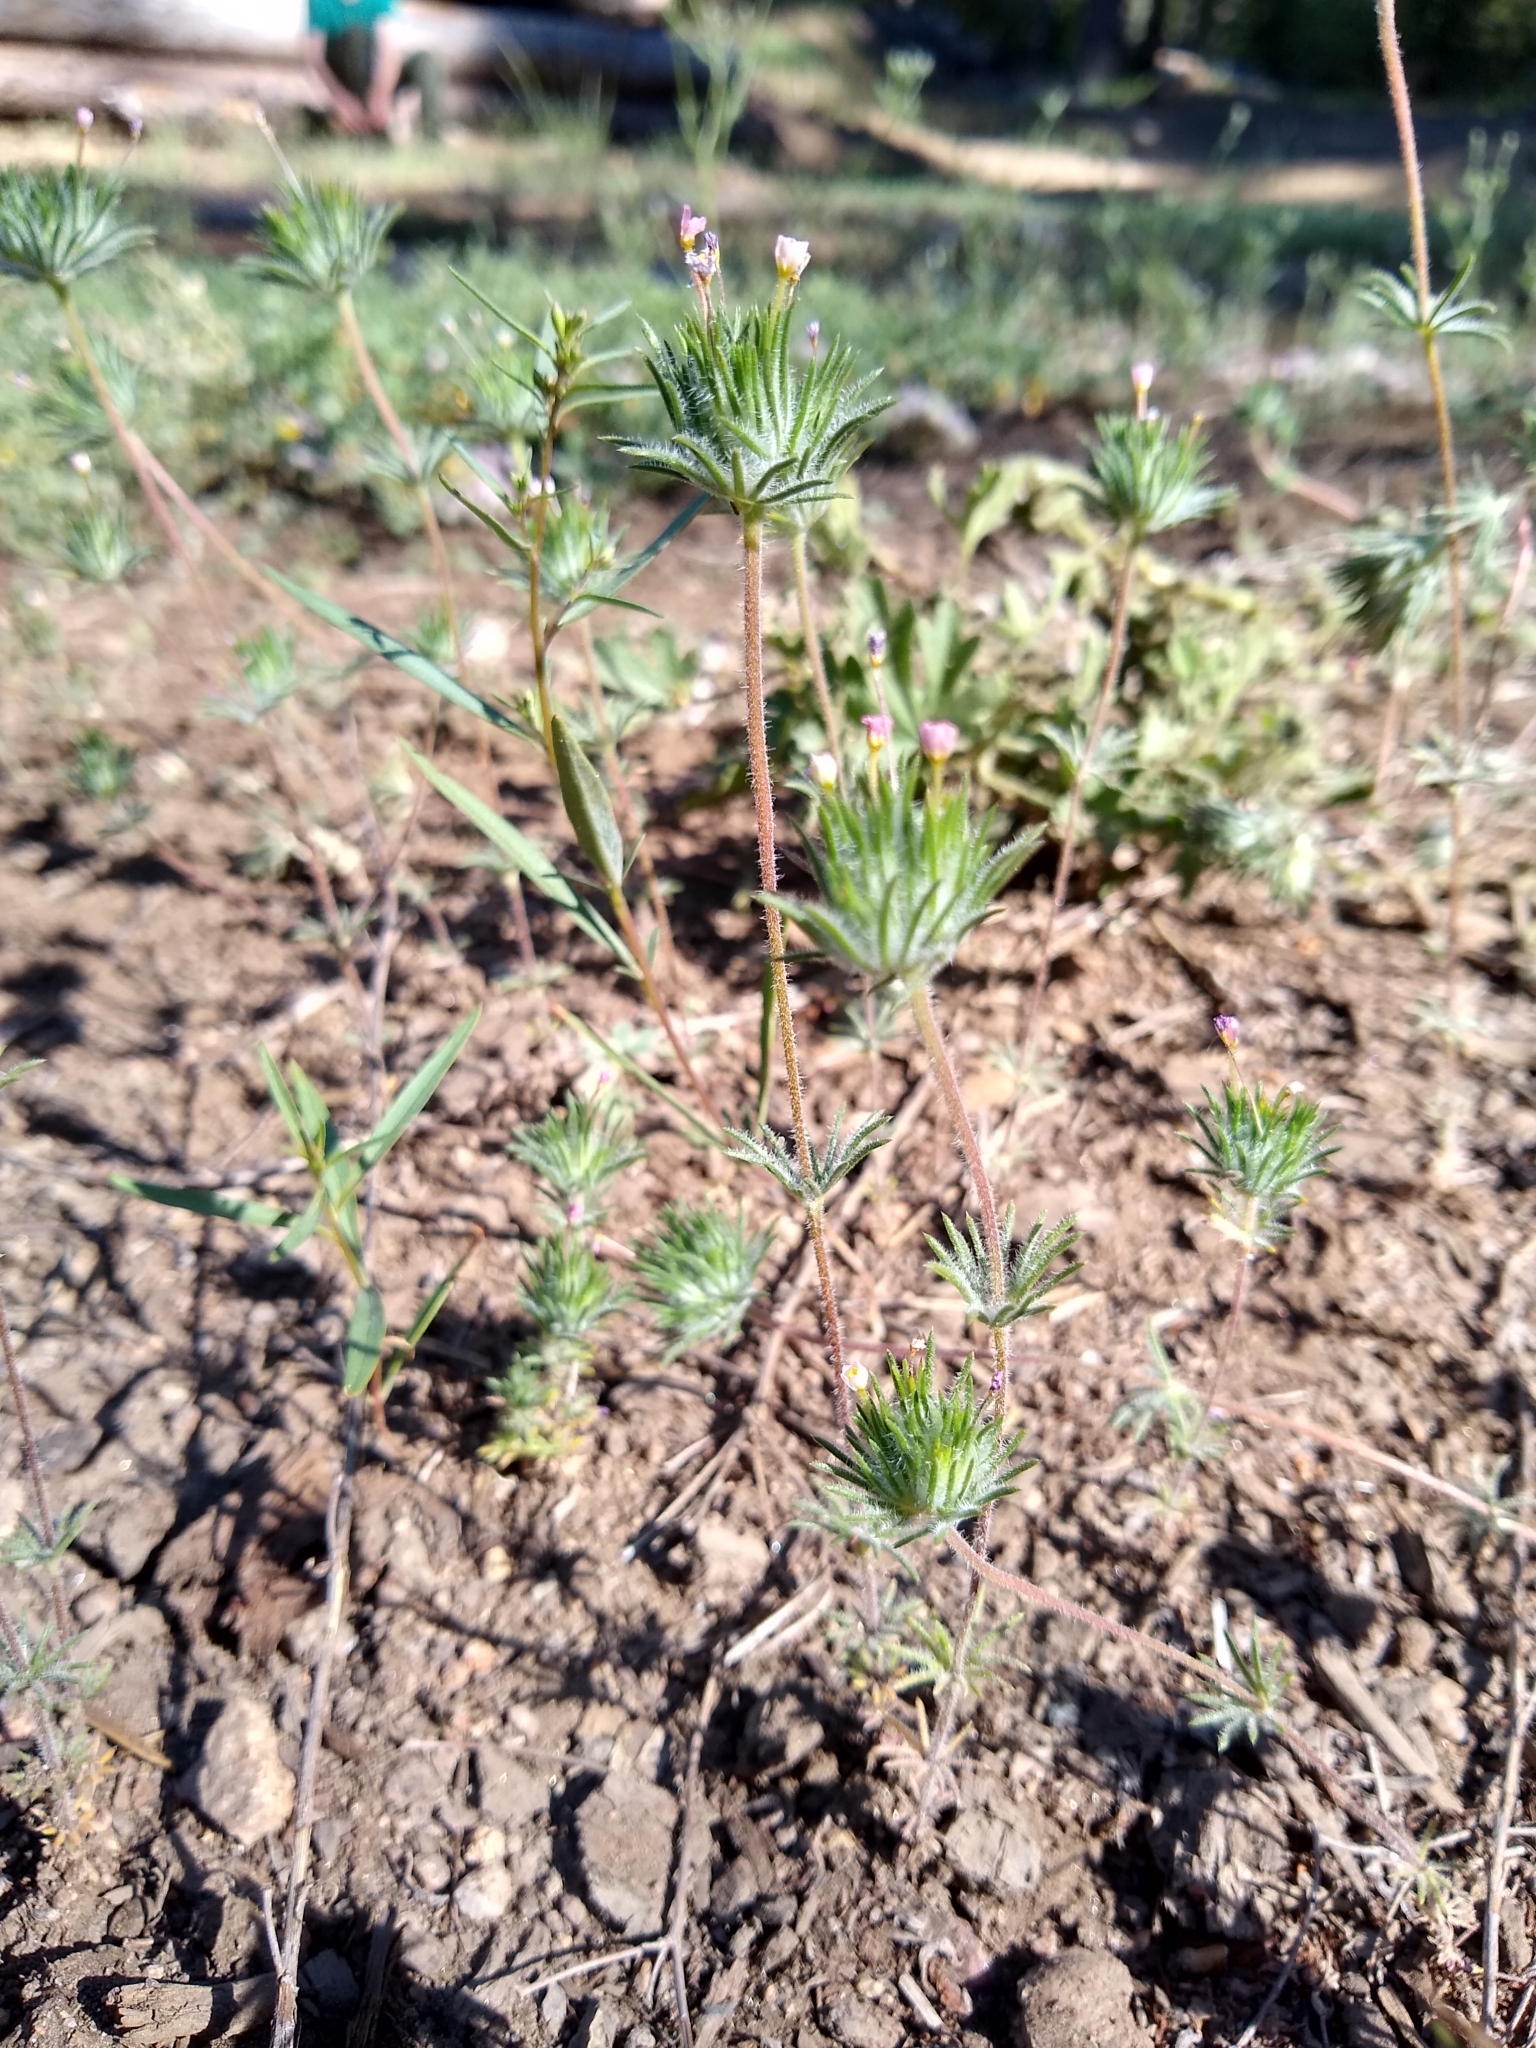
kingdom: Plantae
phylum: Tracheophyta
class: Magnoliopsida
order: Ericales
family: Polemoniaceae
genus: Leptosiphon
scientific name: Leptosiphon ciliatus
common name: Whiskerbrush
